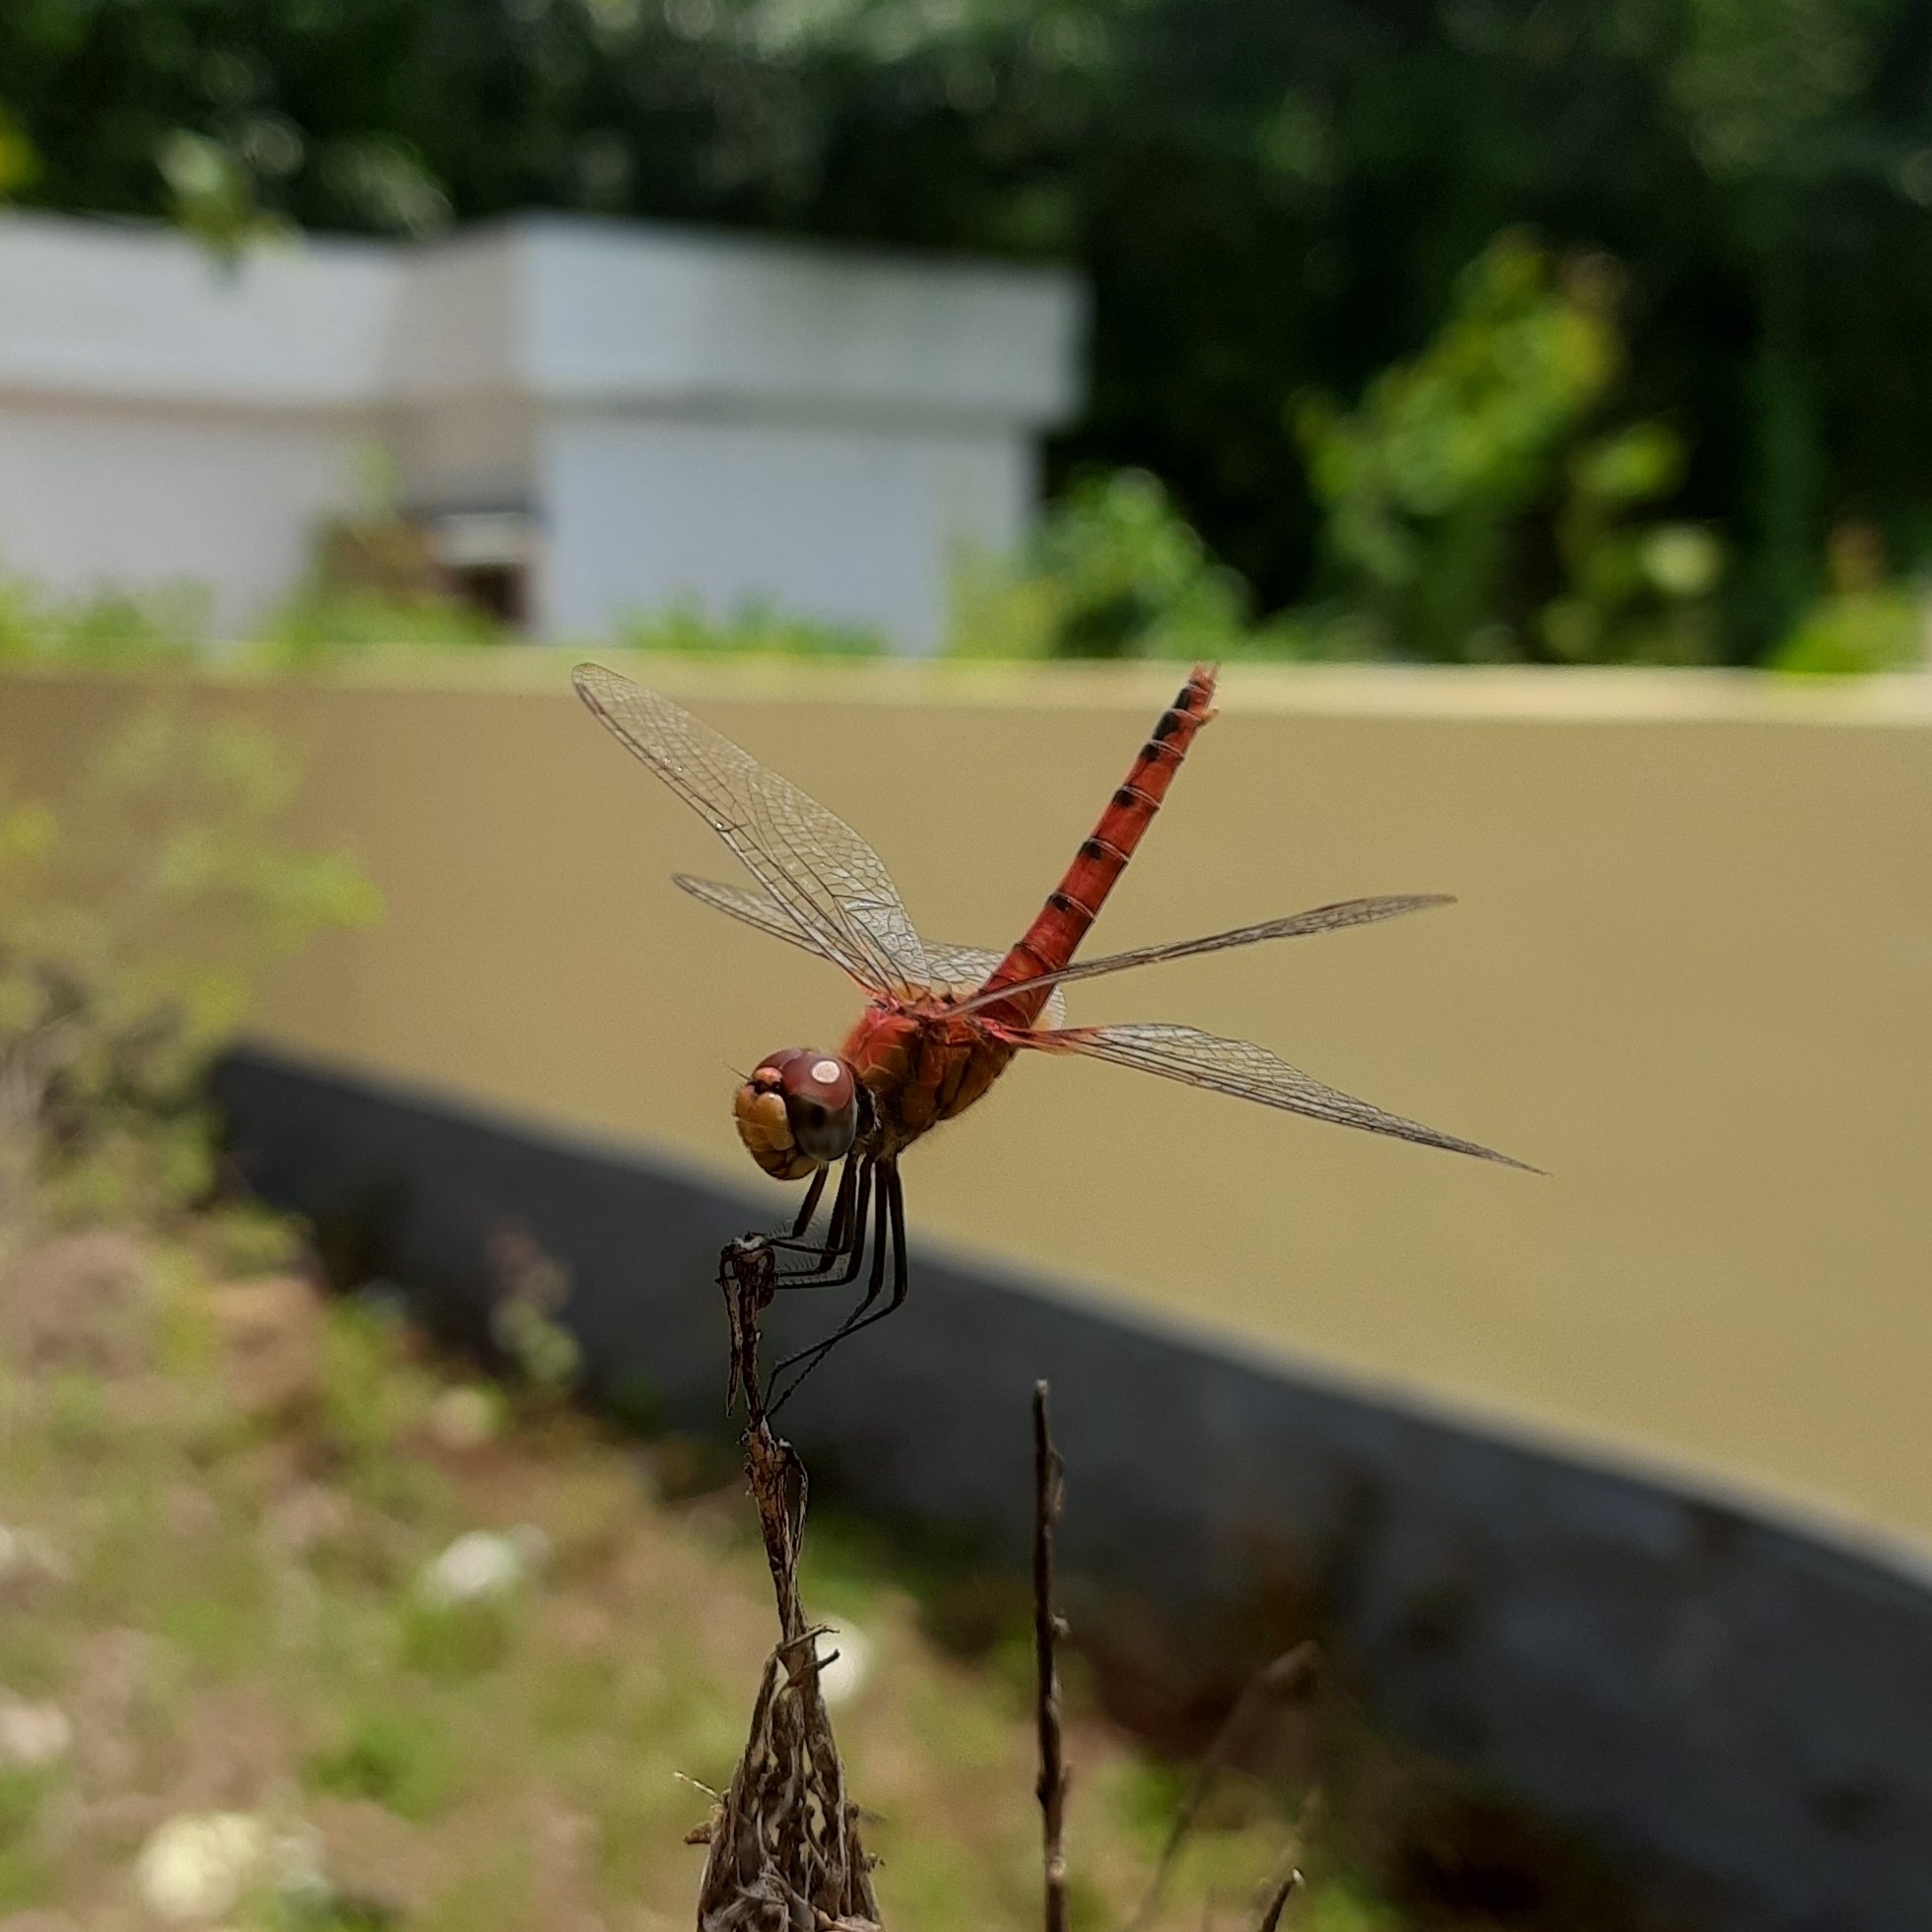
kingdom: Animalia
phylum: Arthropoda
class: Insecta
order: Odonata
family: Libellulidae
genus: Urothemis
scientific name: Urothemis signata
